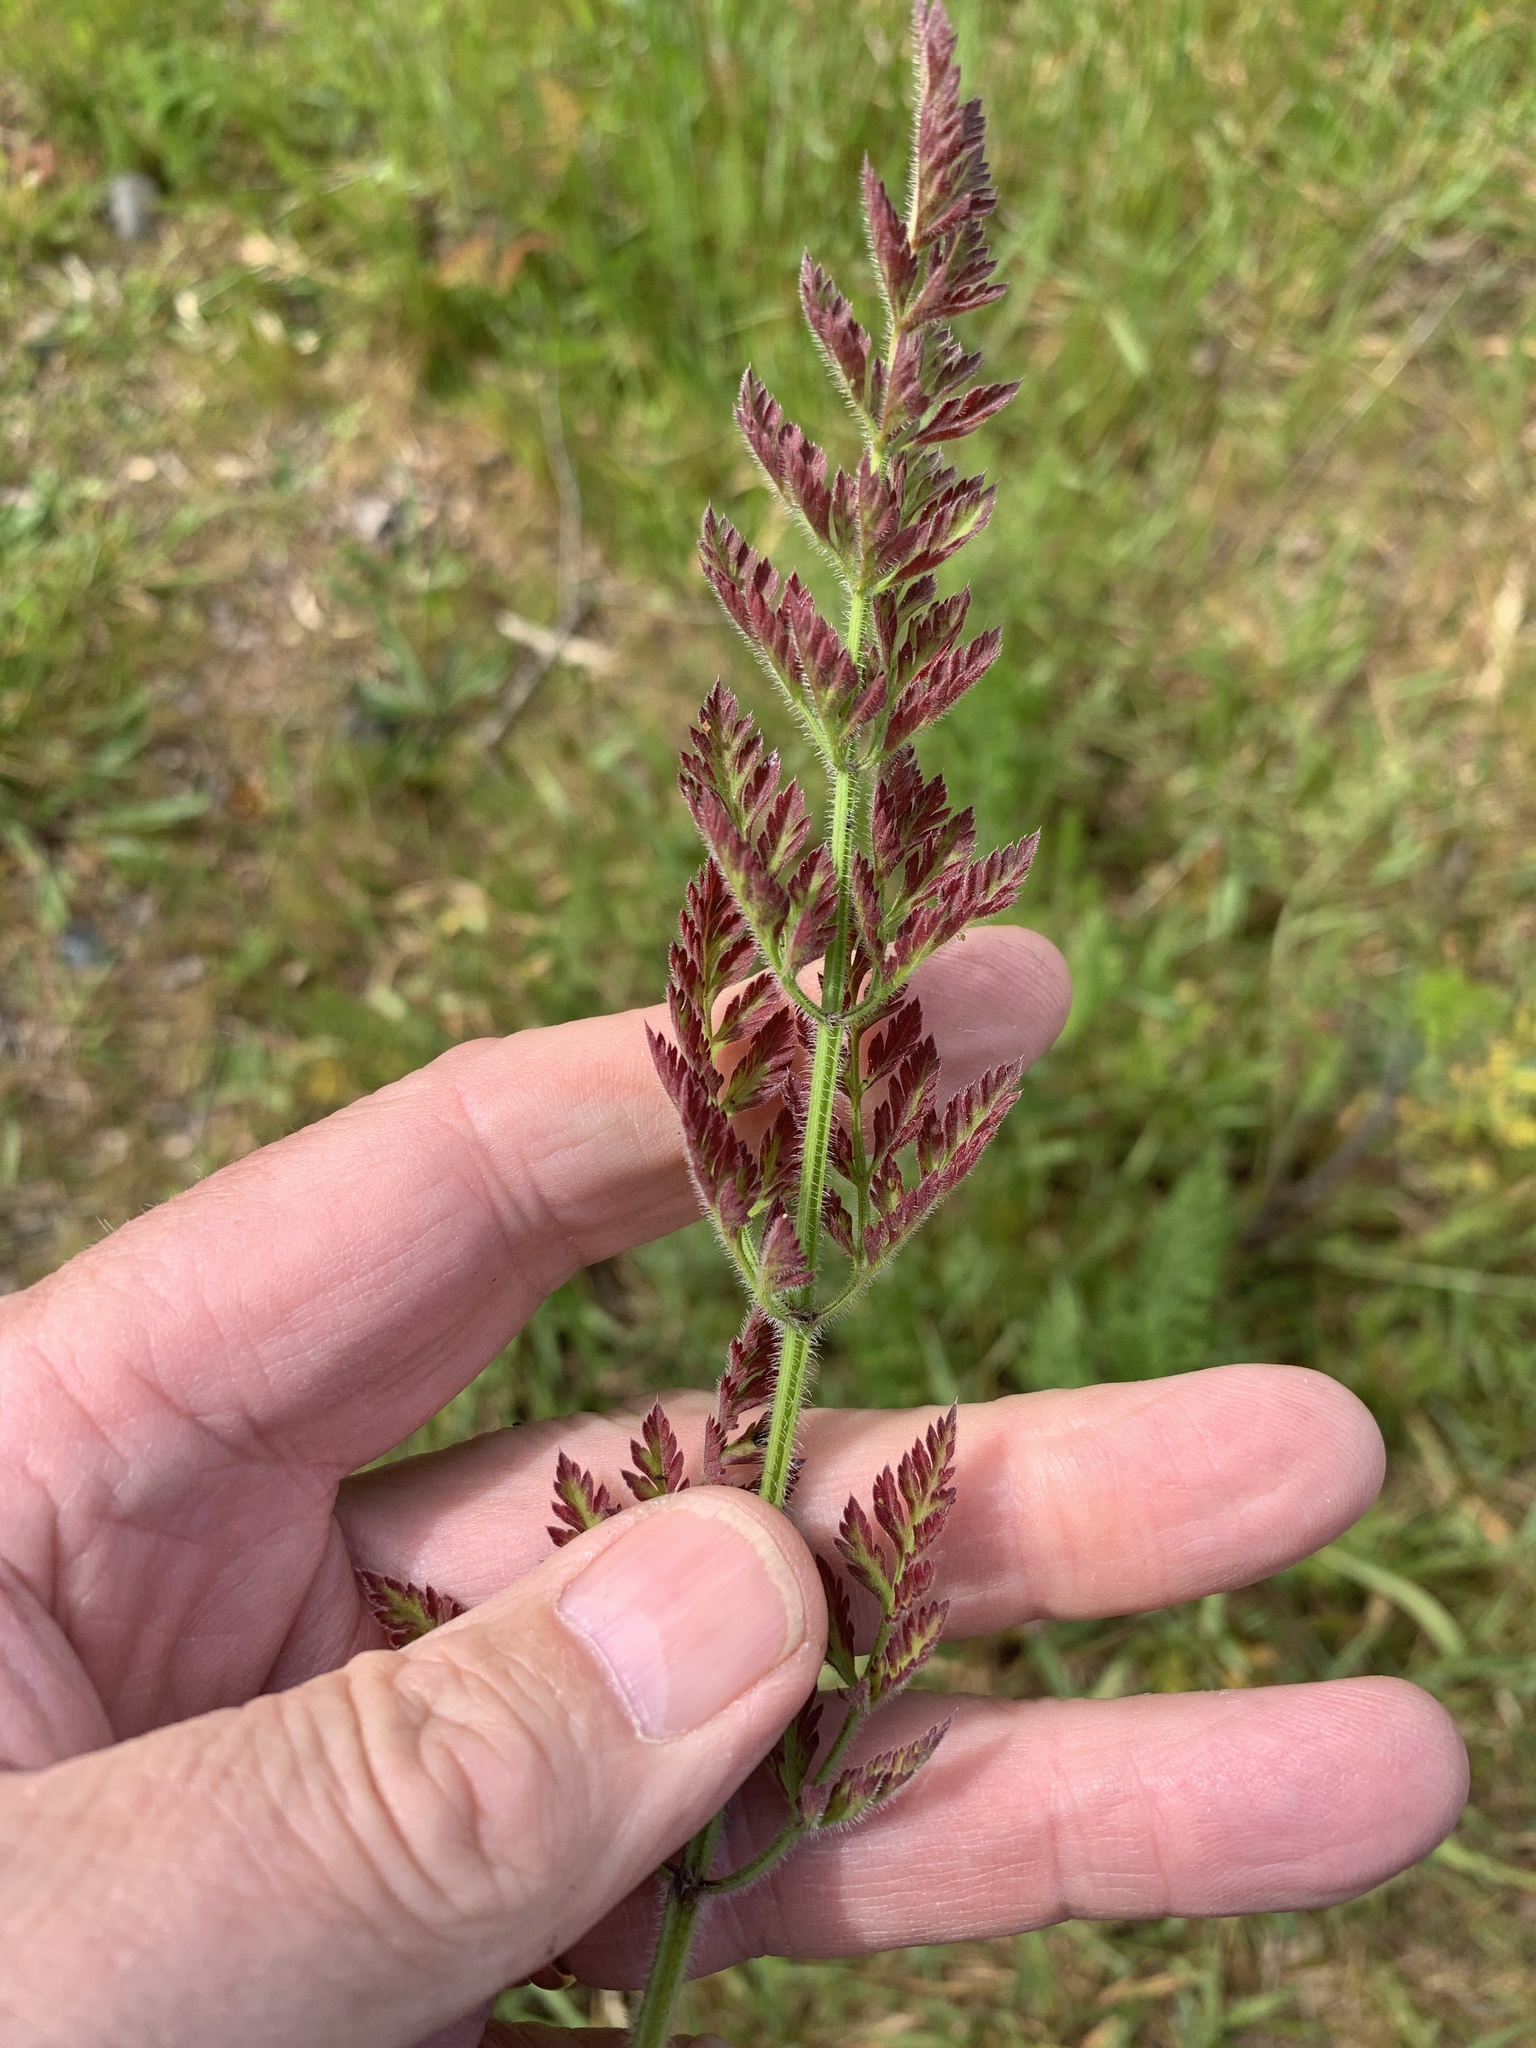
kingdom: Plantae
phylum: Tracheophyta
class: Magnoliopsida
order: Apiales
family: Apiaceae
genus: Daucus
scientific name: Daucus carota
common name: Wild carrot
